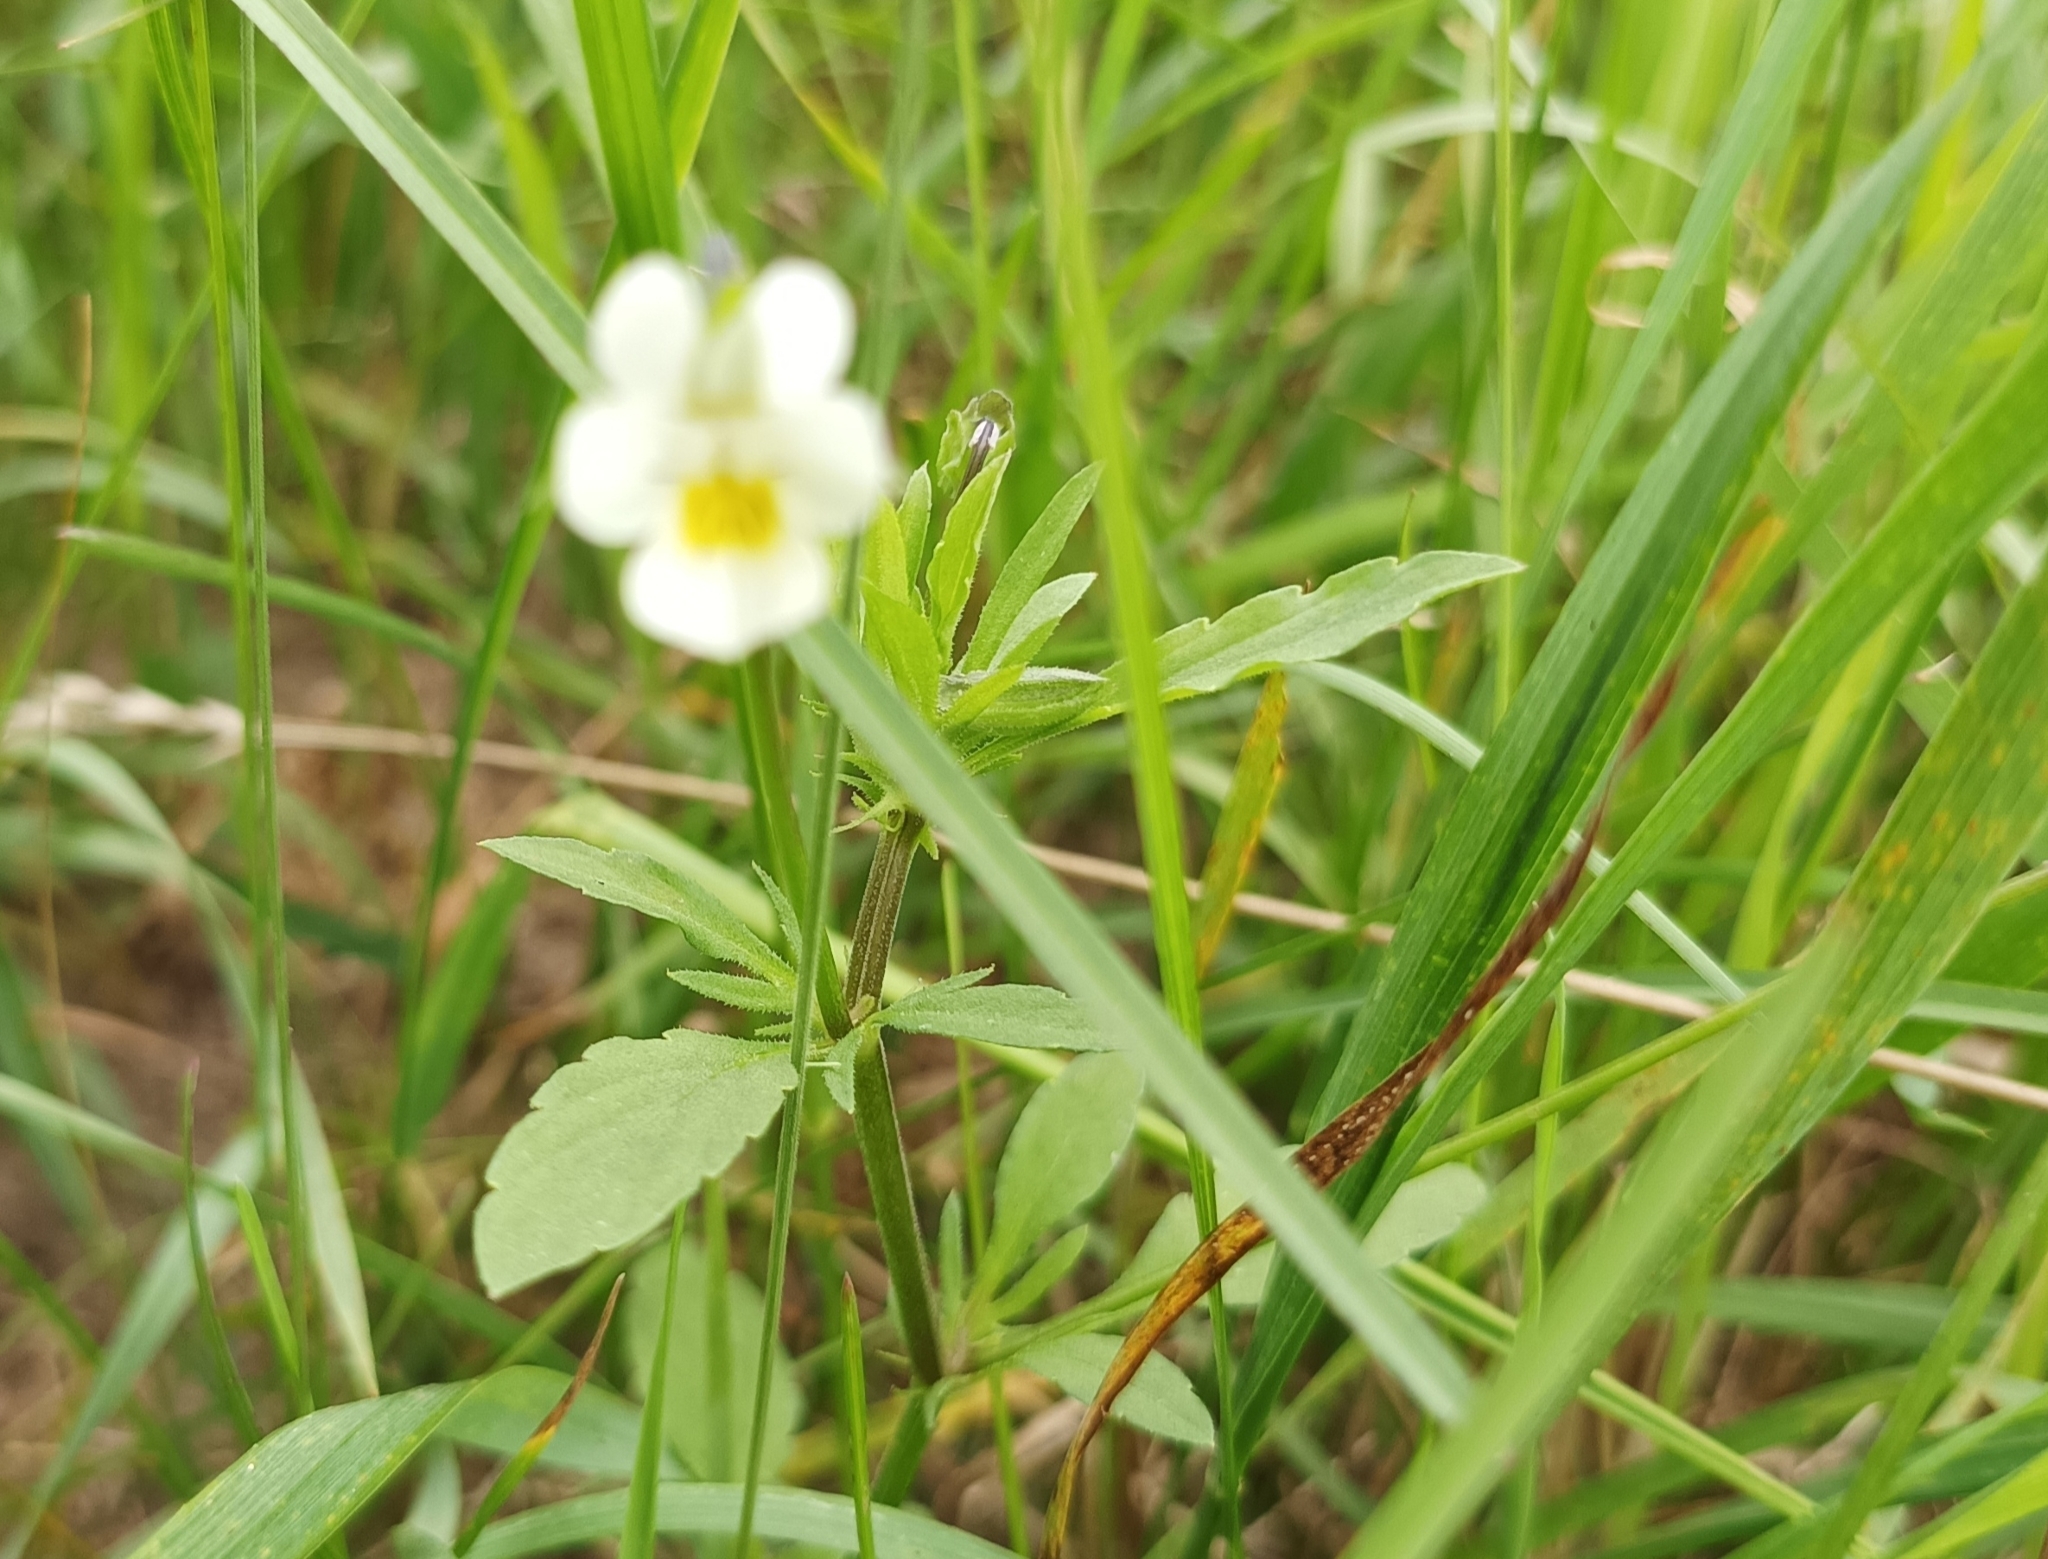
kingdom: Plantae
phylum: Tracheophyta
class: Magnoliopsida
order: Malpighiales
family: Violaceae
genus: Viola
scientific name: Viola arvensis
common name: Field pansy
